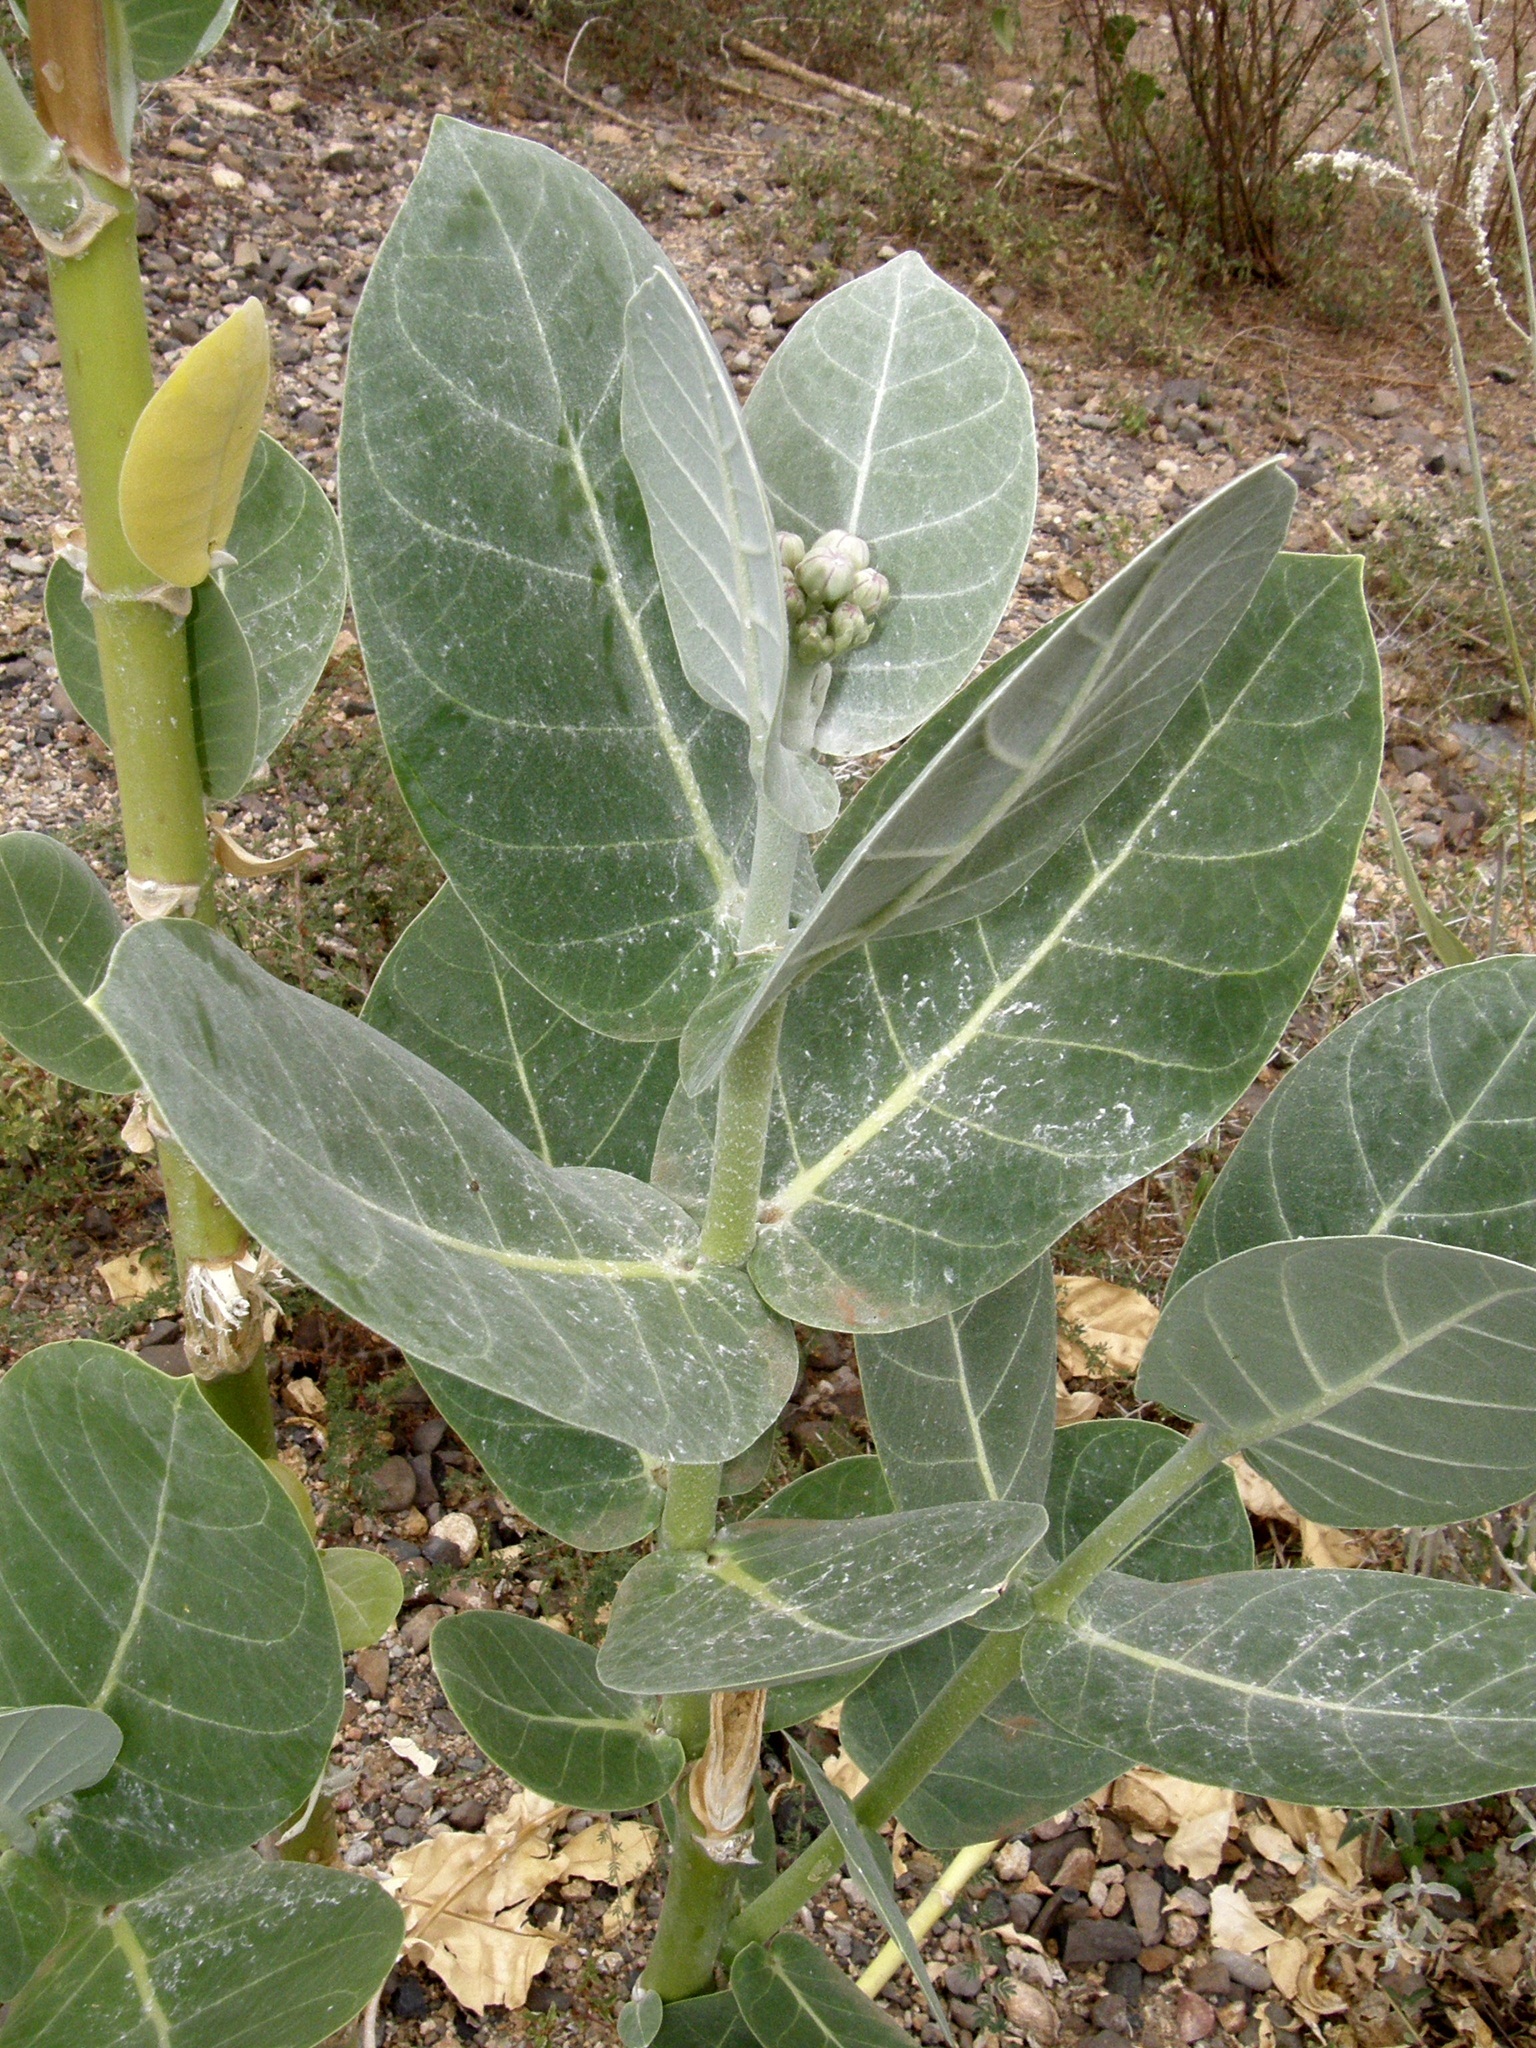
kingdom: Plantae
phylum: Tracheophyta
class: Magnoliopsida
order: Gentianales
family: Apocynaceae
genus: Calotropis
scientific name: Calotropis procera
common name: Roostertree
